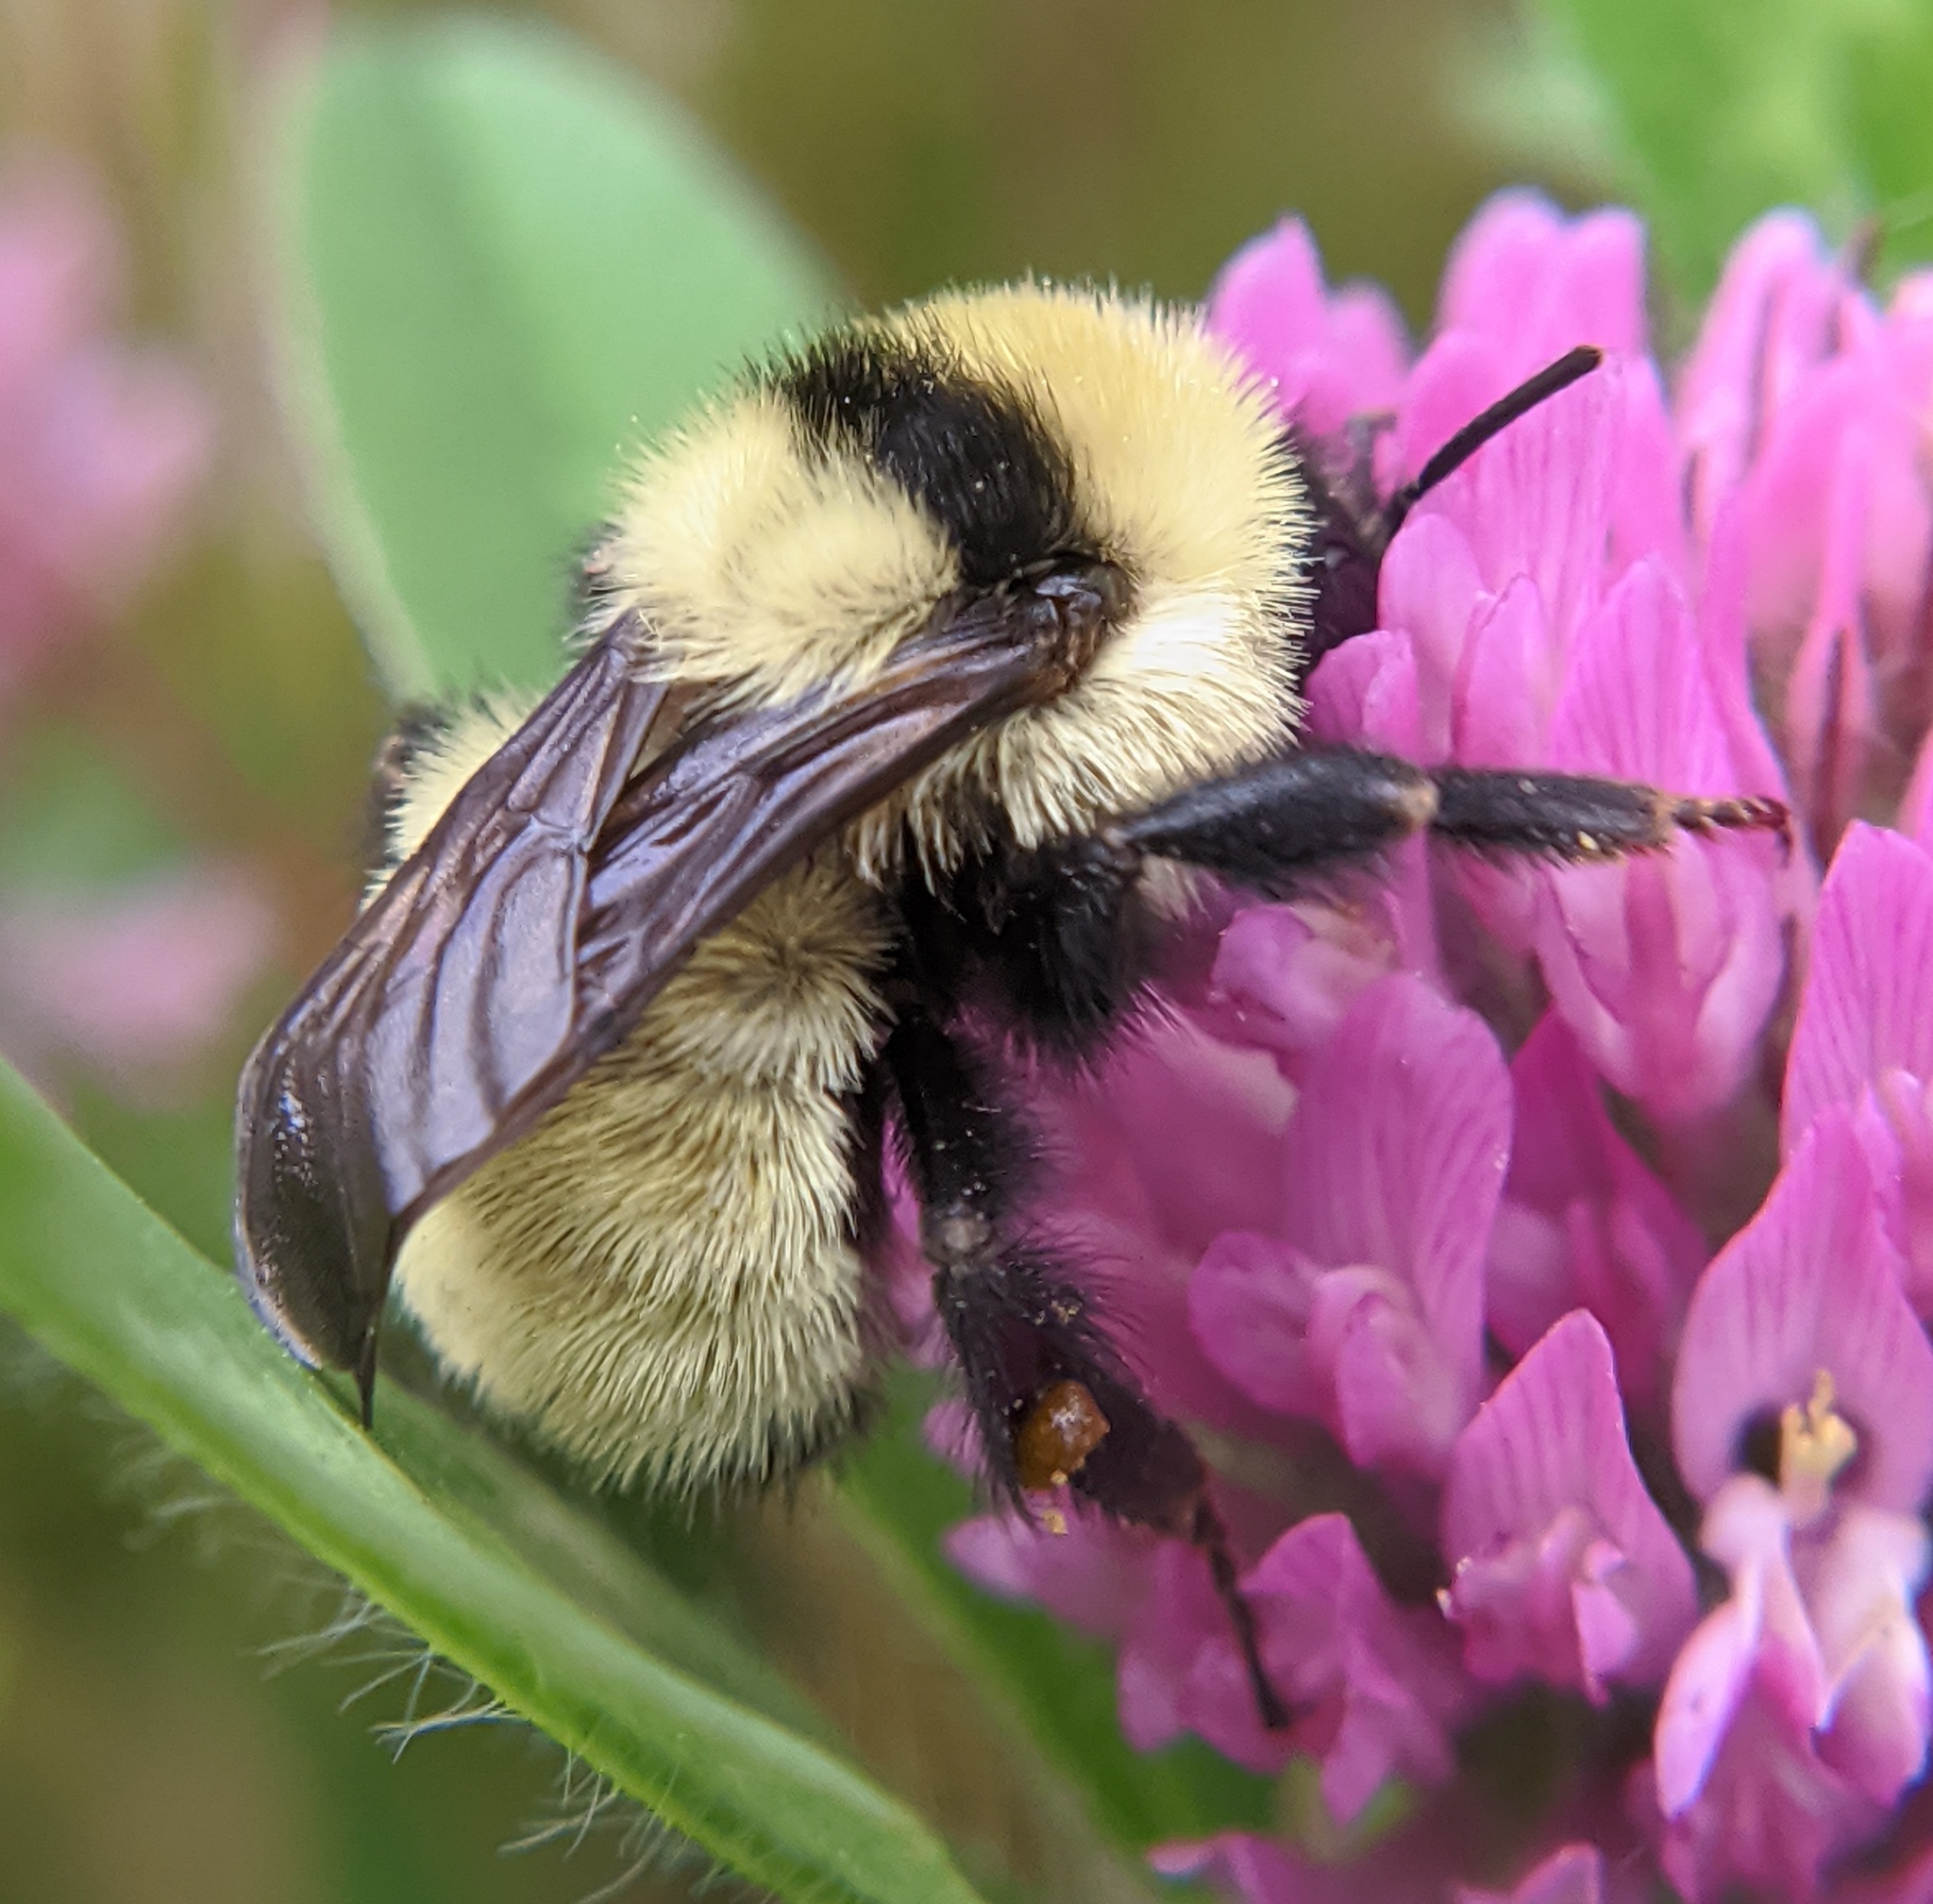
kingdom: Animalia
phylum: Arthropoda
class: Insecta
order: Hymenoptera
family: Apidae
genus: Bombus
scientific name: Bombus fervidus
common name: Yellow bumble bee
